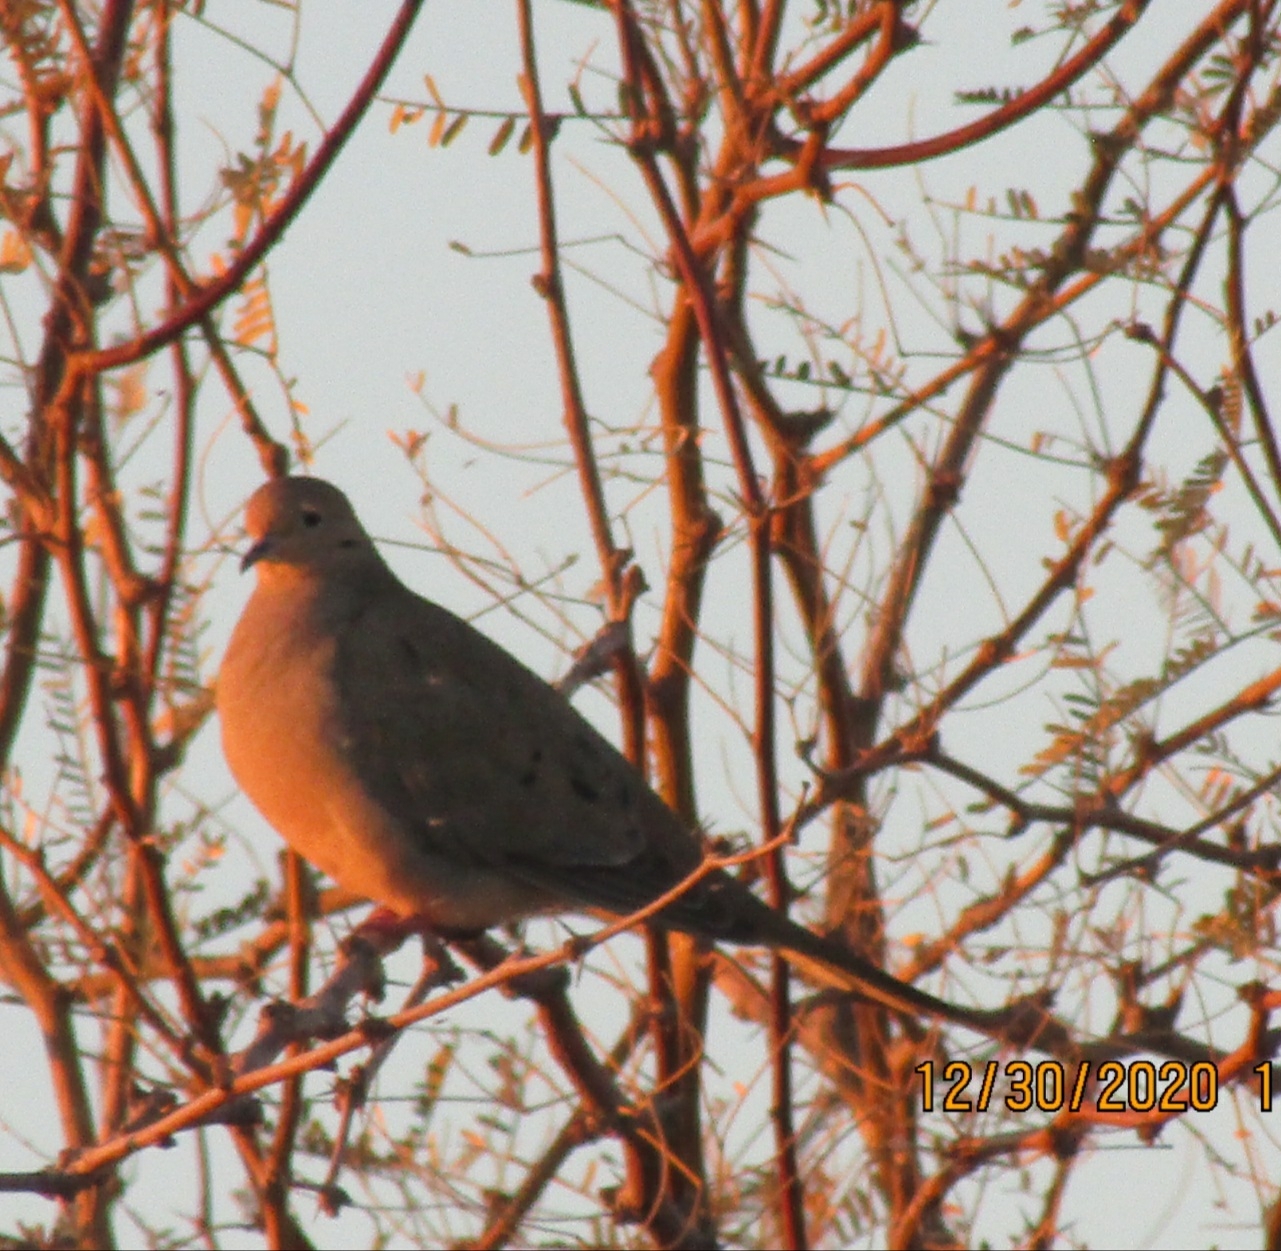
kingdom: Animalia
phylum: Chordata
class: Aves
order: Columbiformes
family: Columbidae
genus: Zenaida
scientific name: Zenaida macroura
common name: Mourning dove
